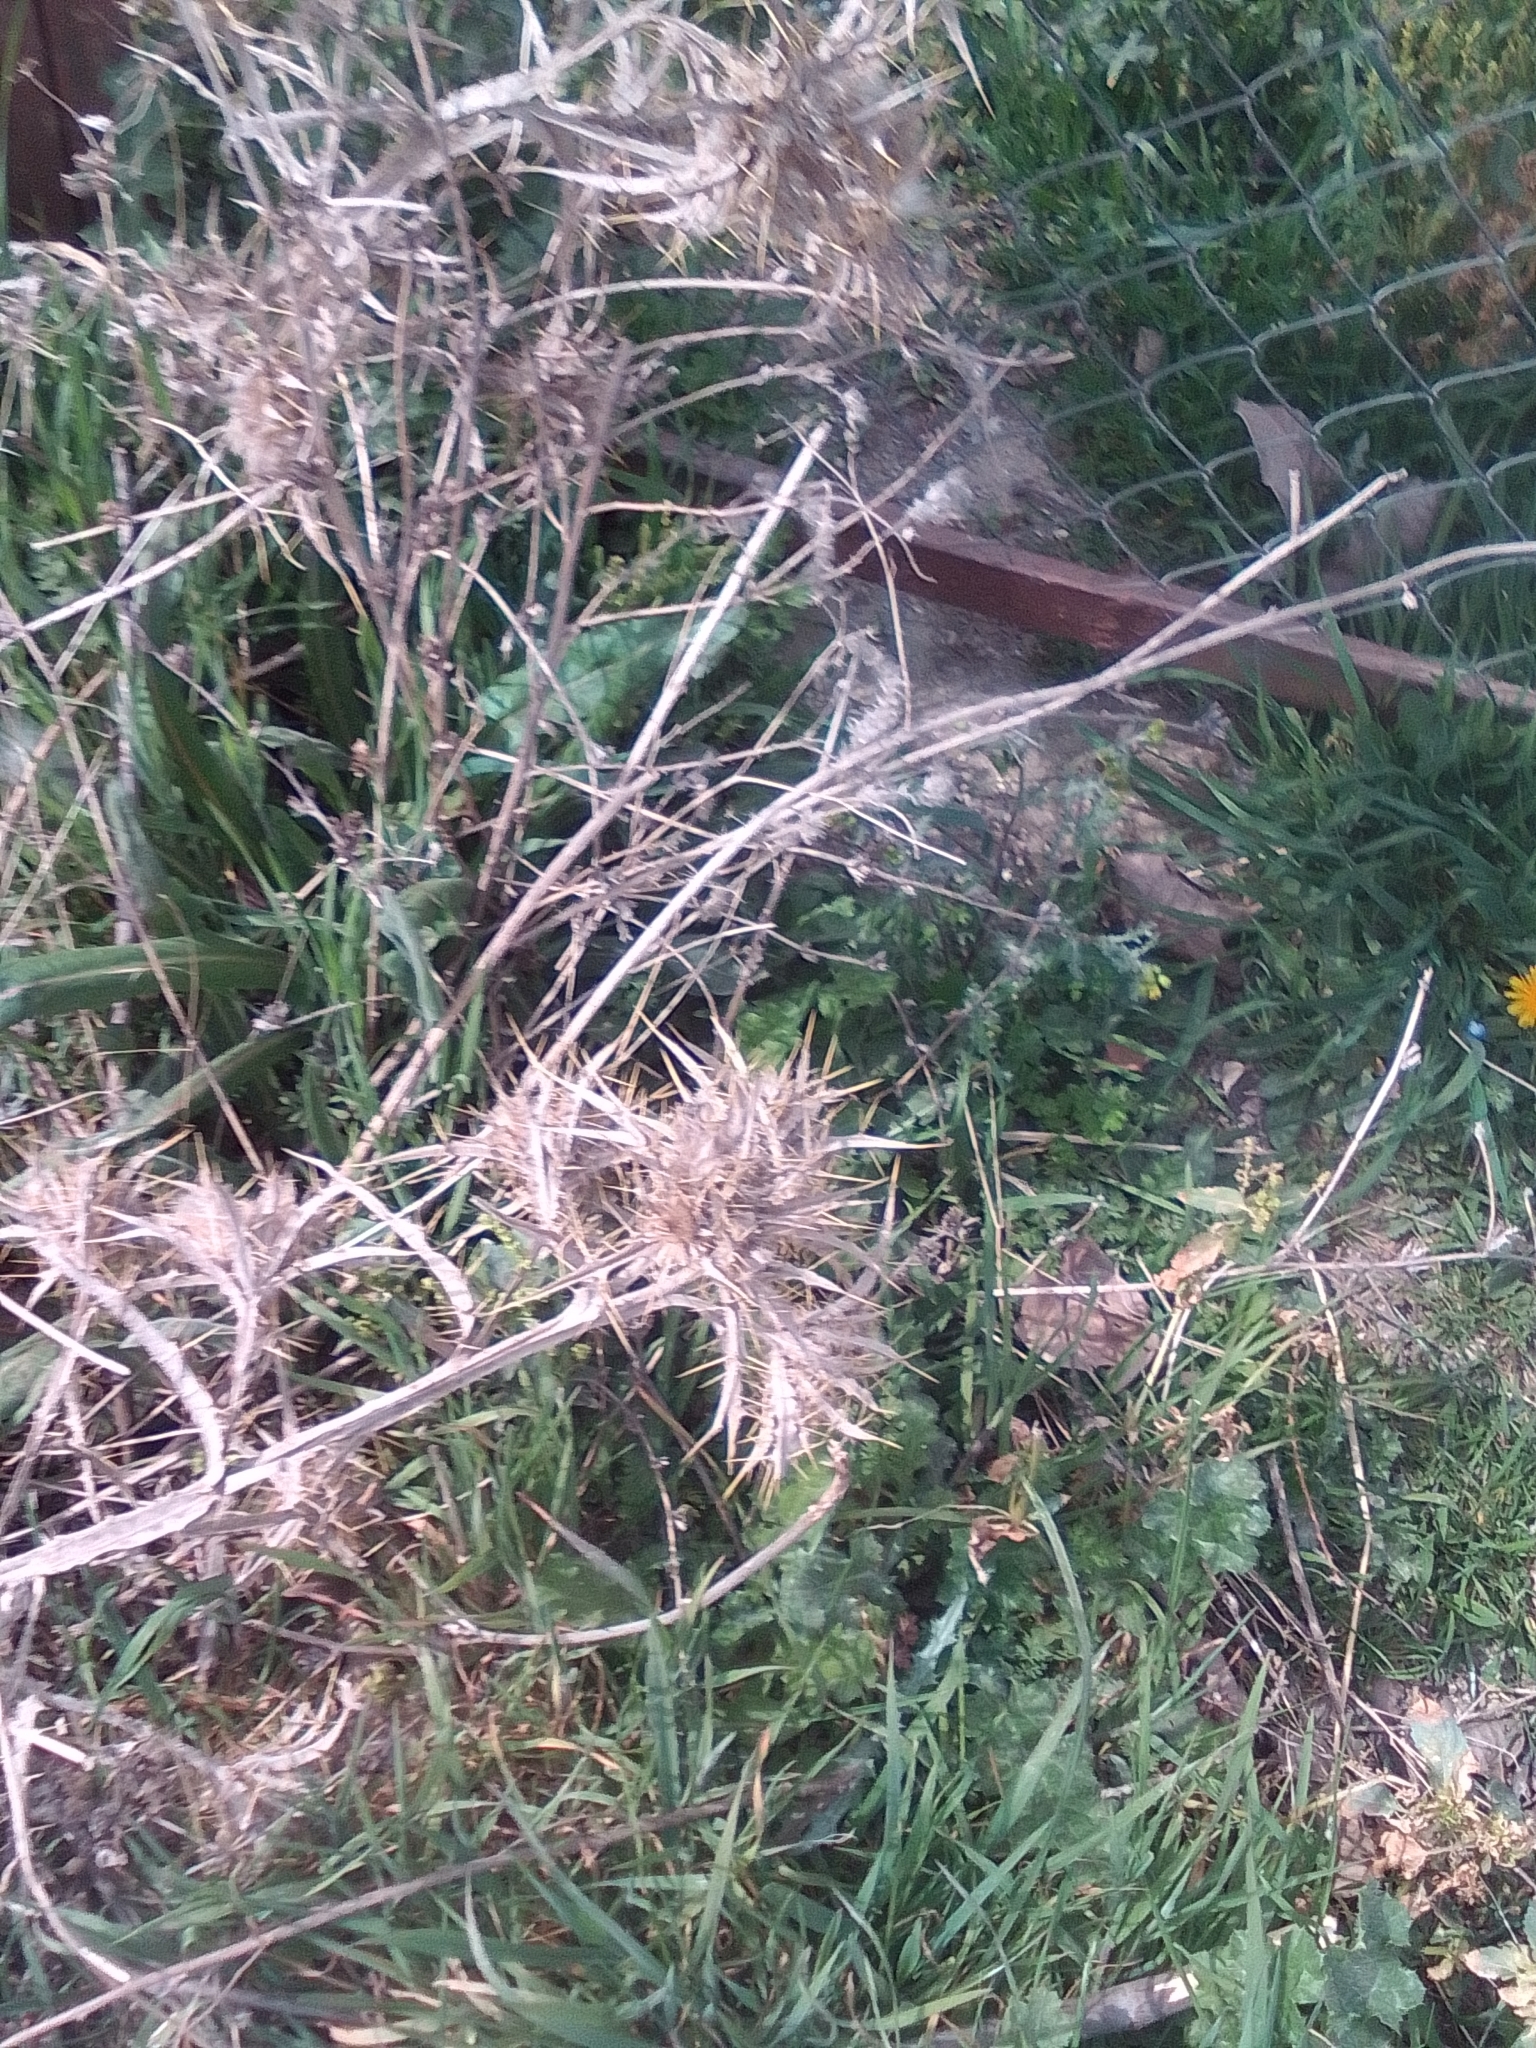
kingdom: Plantae
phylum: Tracheophyta
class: Magnoliopsida
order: Asterales
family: Asteraceae
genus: Carthamus
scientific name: Carthamus lanatus
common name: Downy safflower
